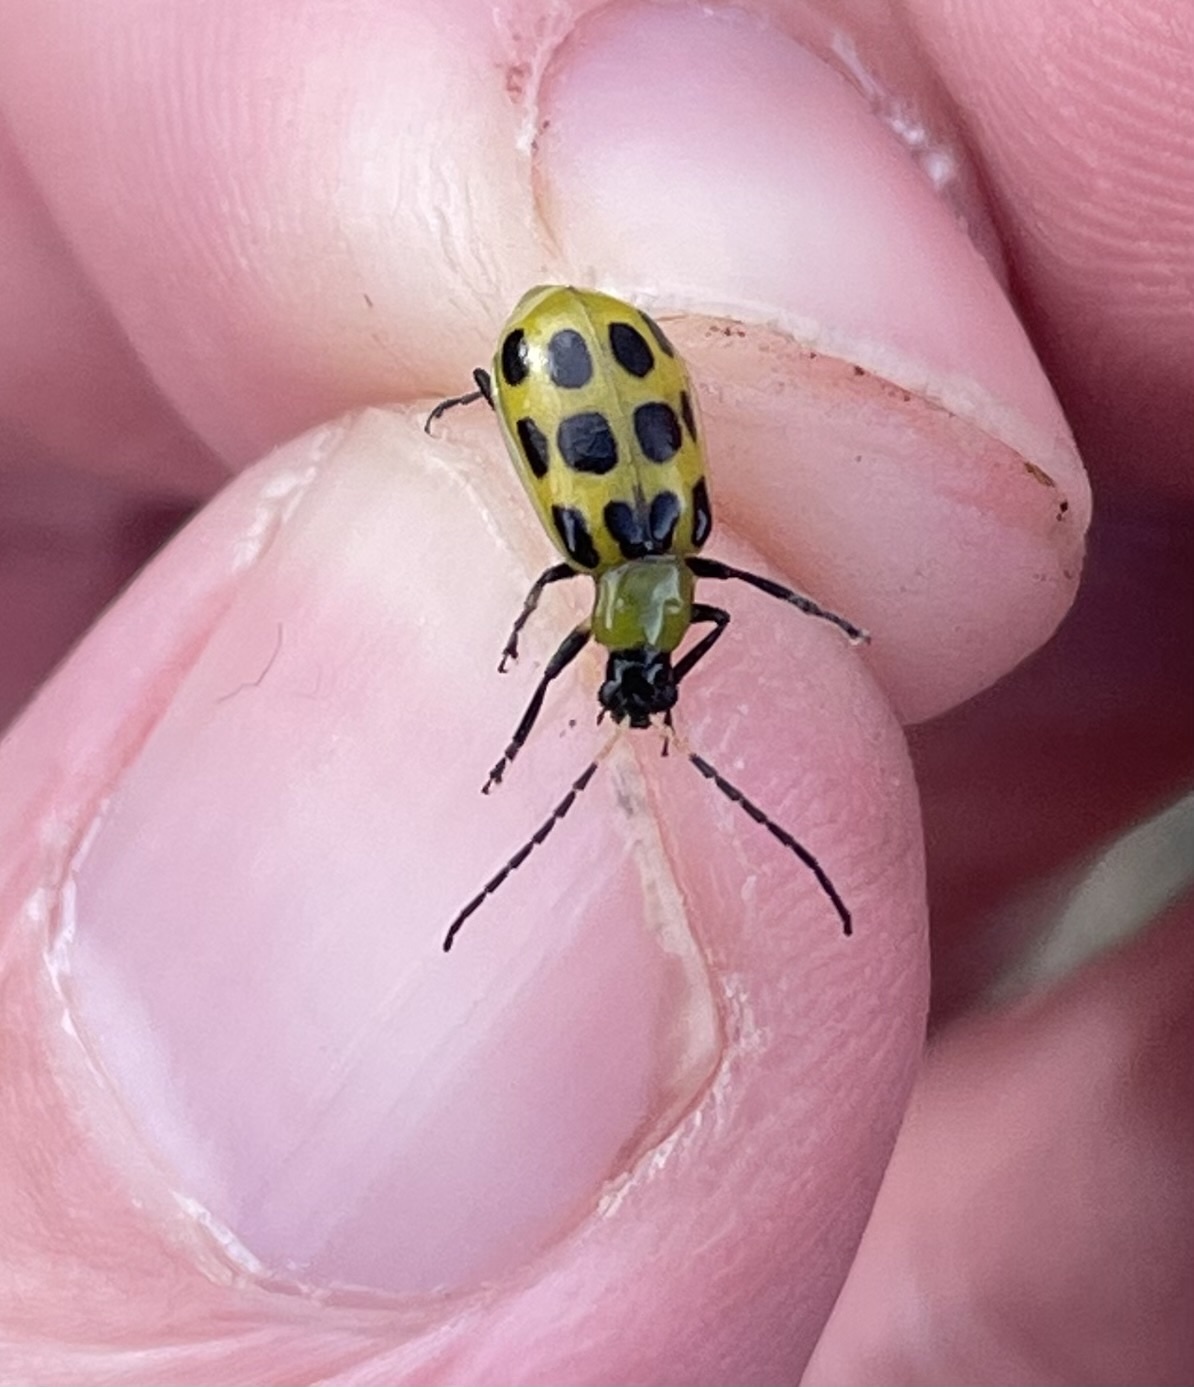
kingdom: Animalia
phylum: Arthropoda
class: Insecta
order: Coleoptera
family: Chrysomelidae
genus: Diabrotica
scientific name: Diabrotica undecimpunctata
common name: Spotted cucumber beetle
